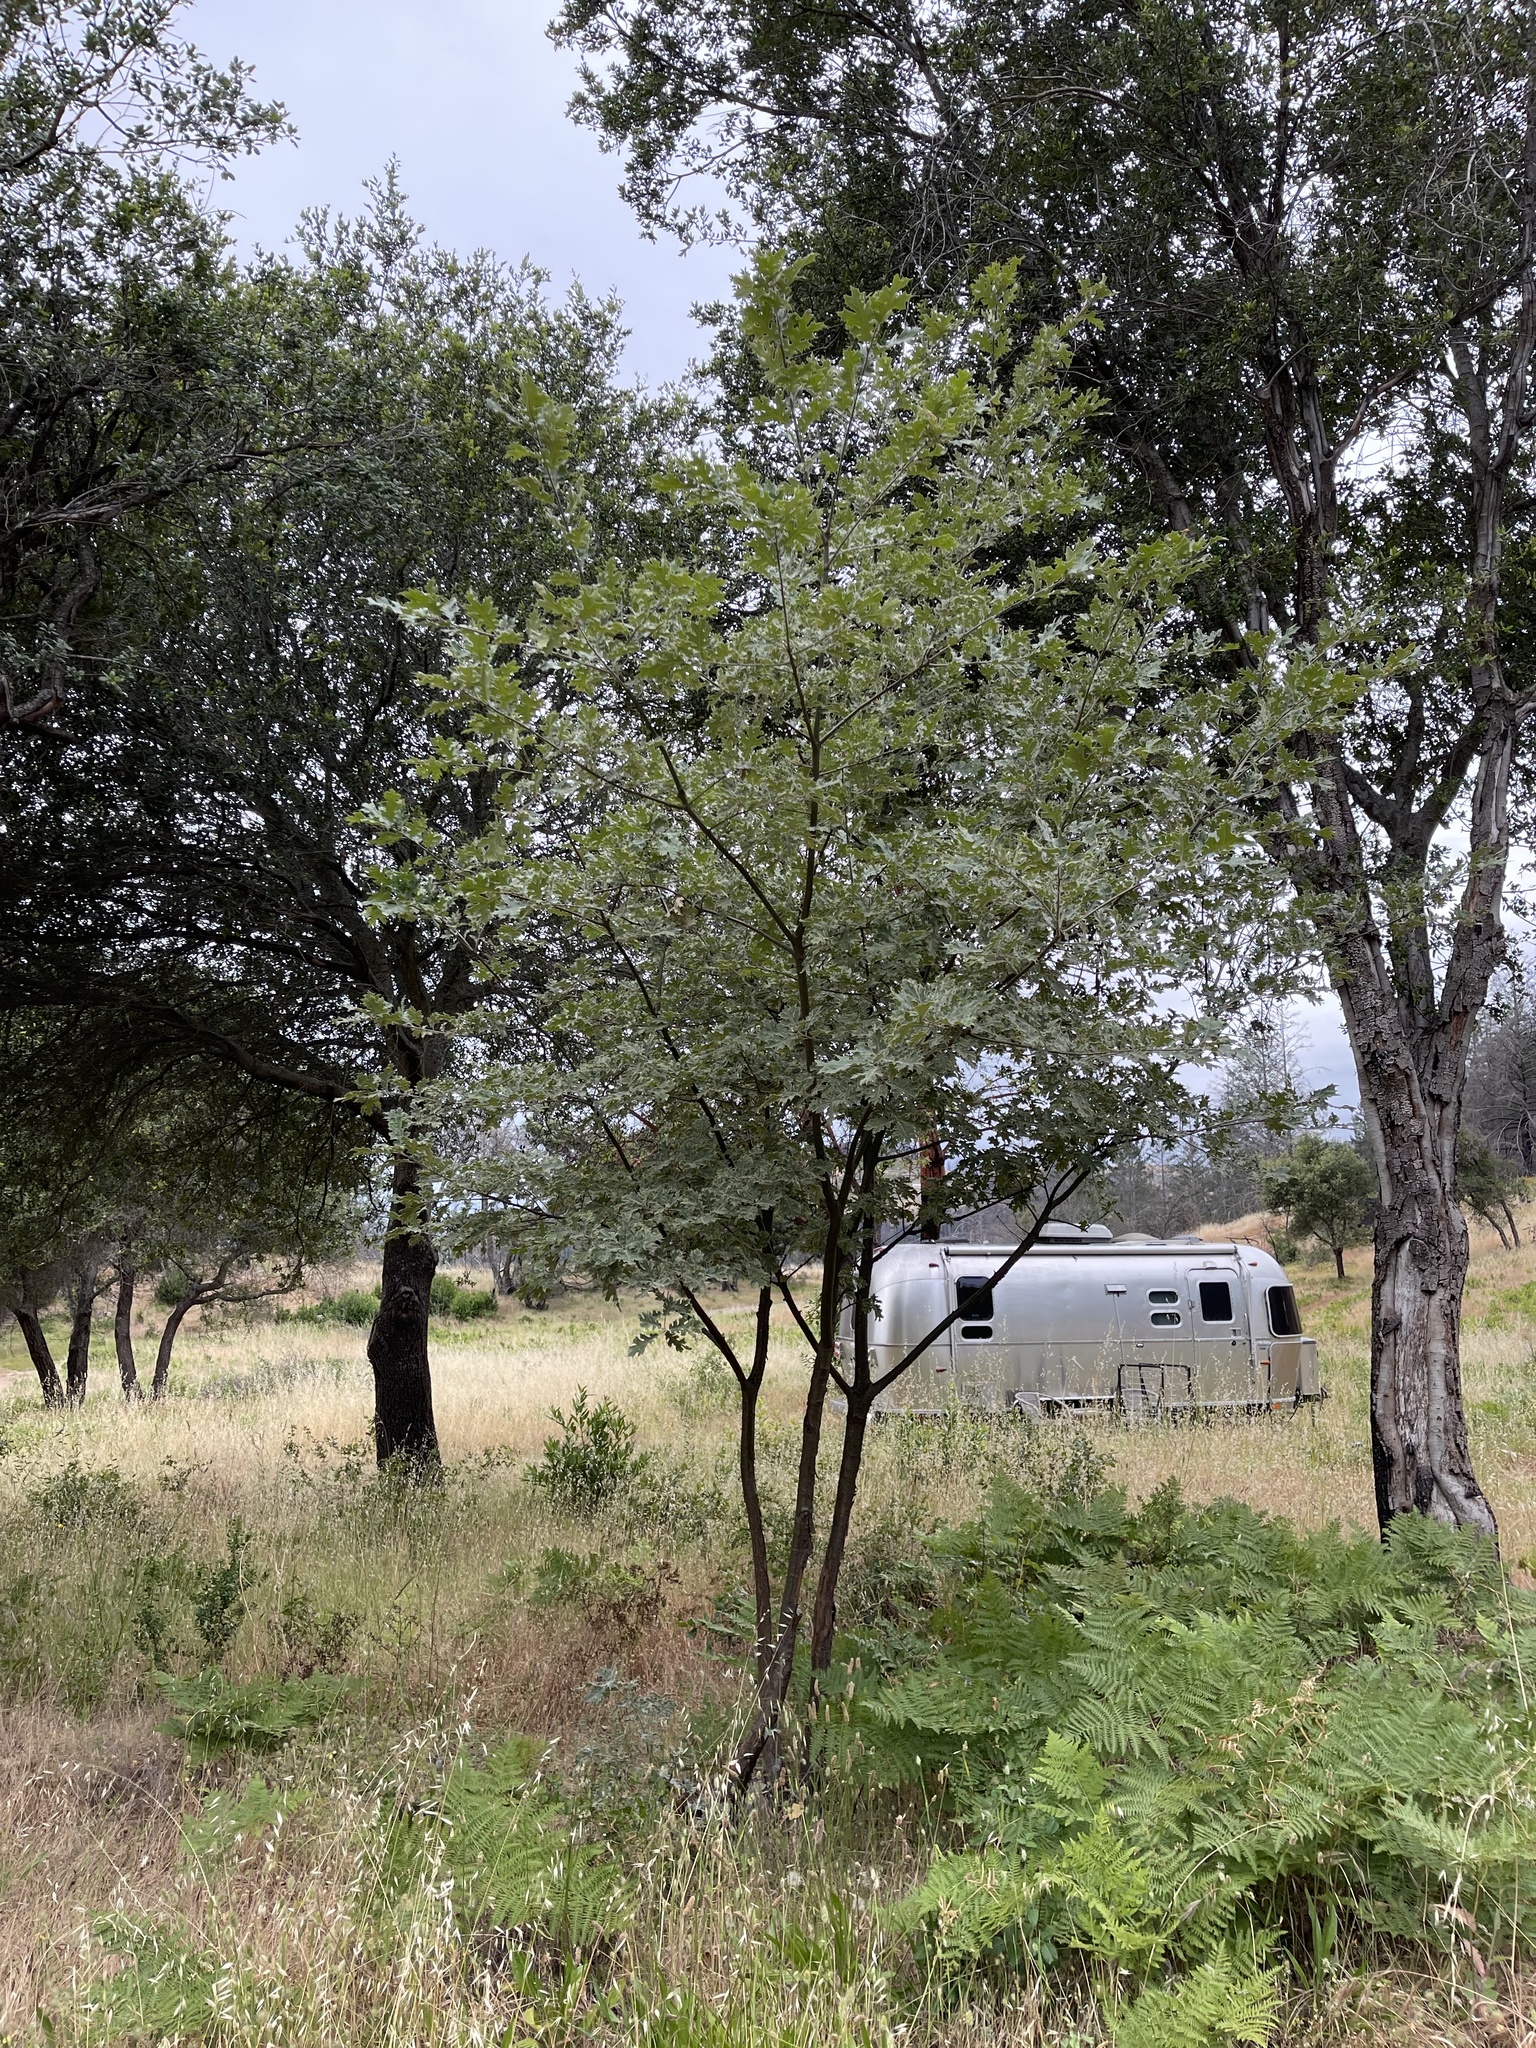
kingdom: Plantae
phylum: Tracheophyta
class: Magnoliopsida
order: Fagales
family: Fagaceae
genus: Quercus
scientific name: Quercus kelloggii
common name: California black oak
